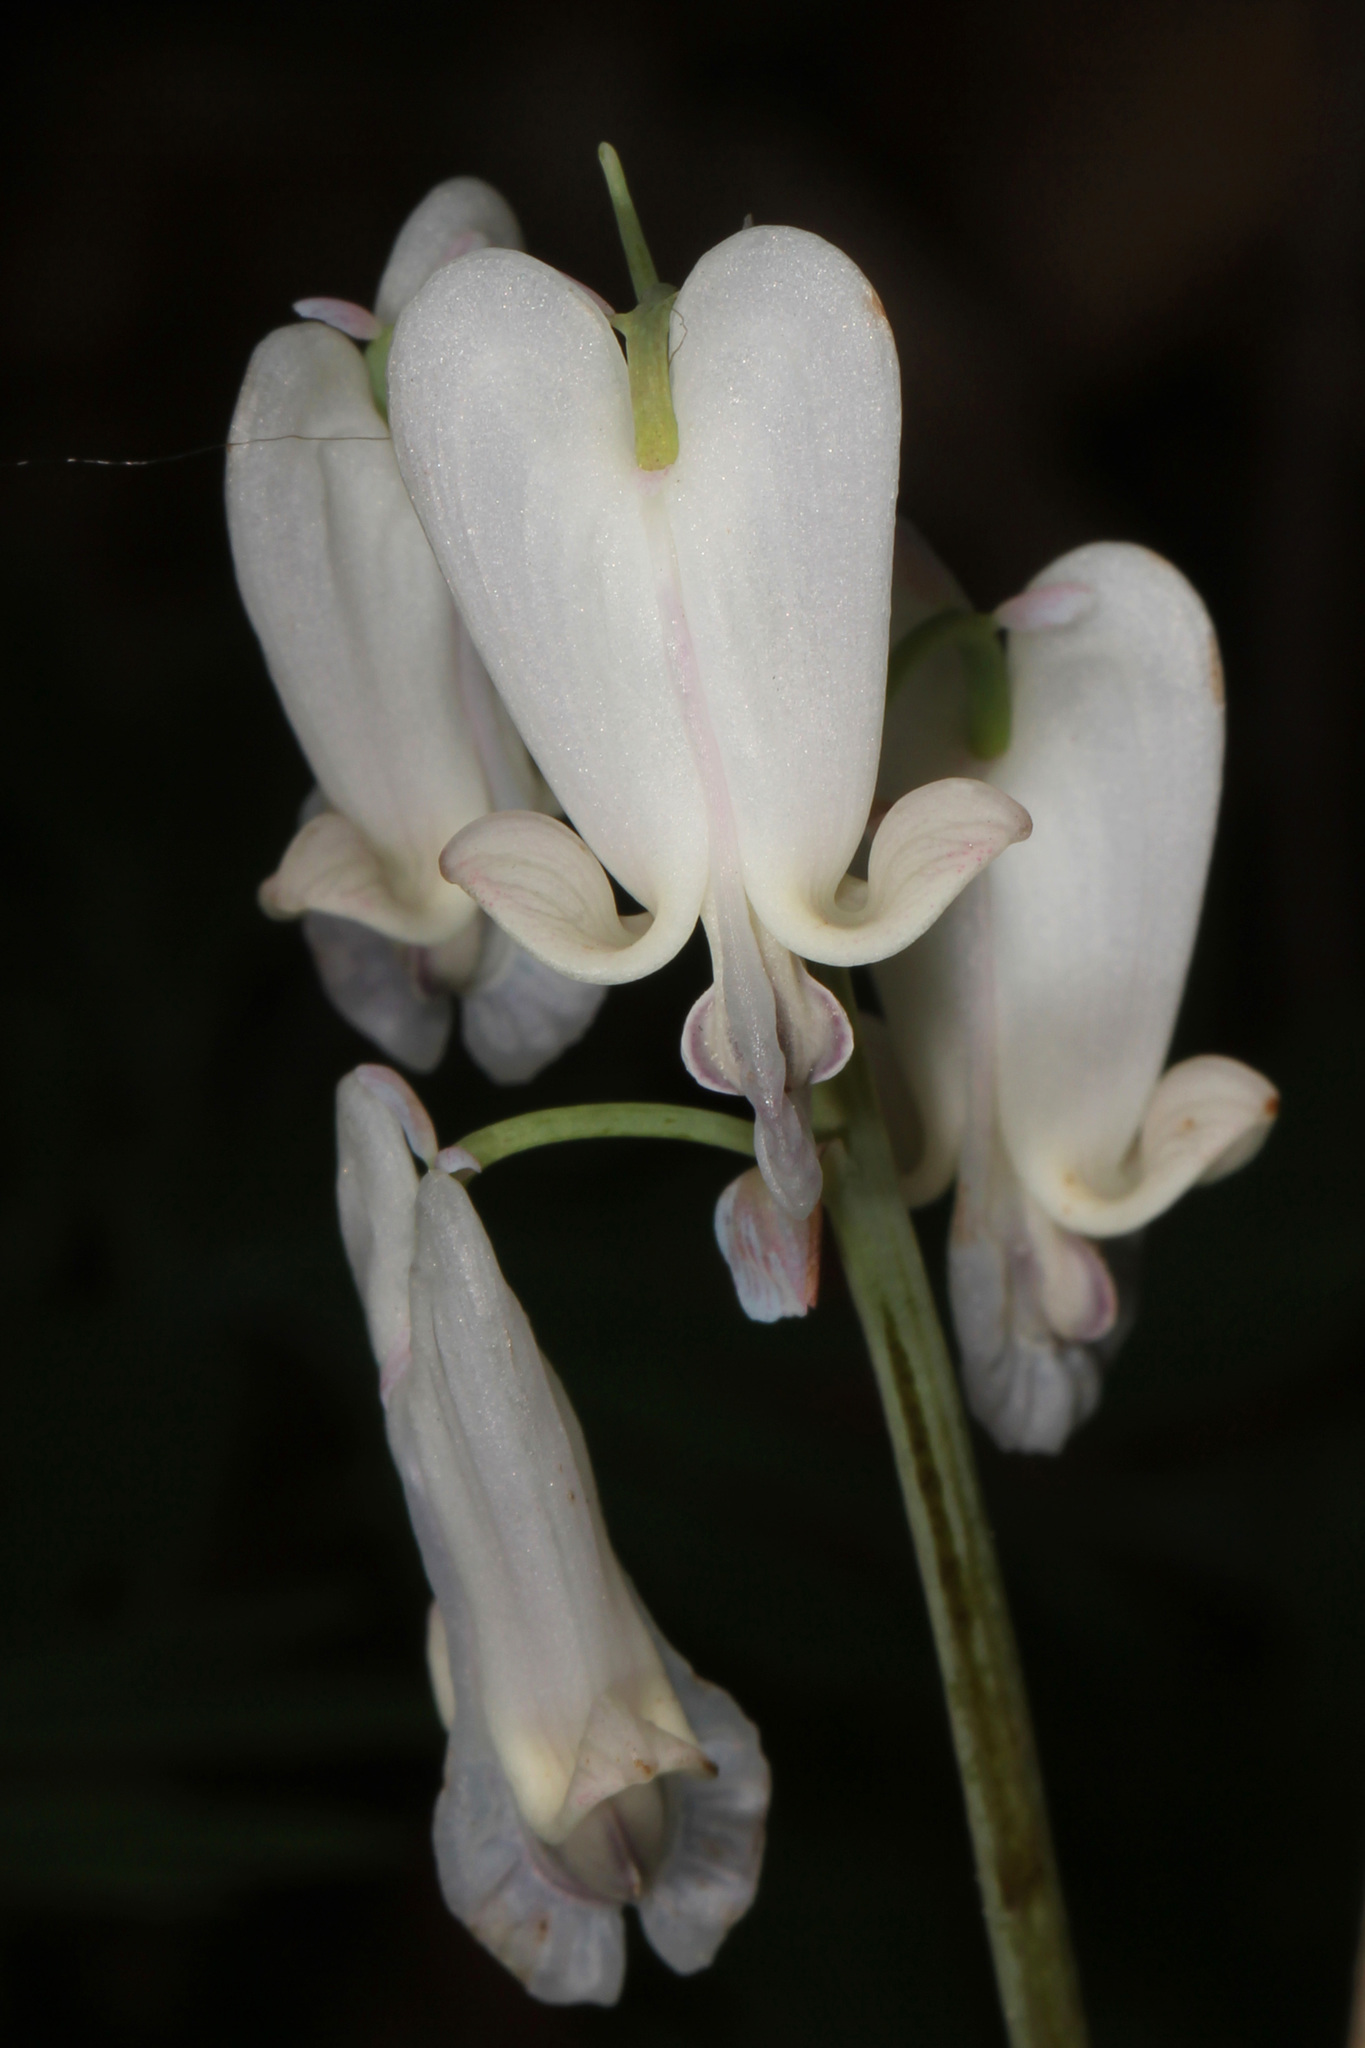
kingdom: Plantae
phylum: Tracheophyta
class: Magnoliopsida
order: Ranunculales
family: Papaveraceae
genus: Dicentra
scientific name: Dicentra canadensis
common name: Squirrel-corn
